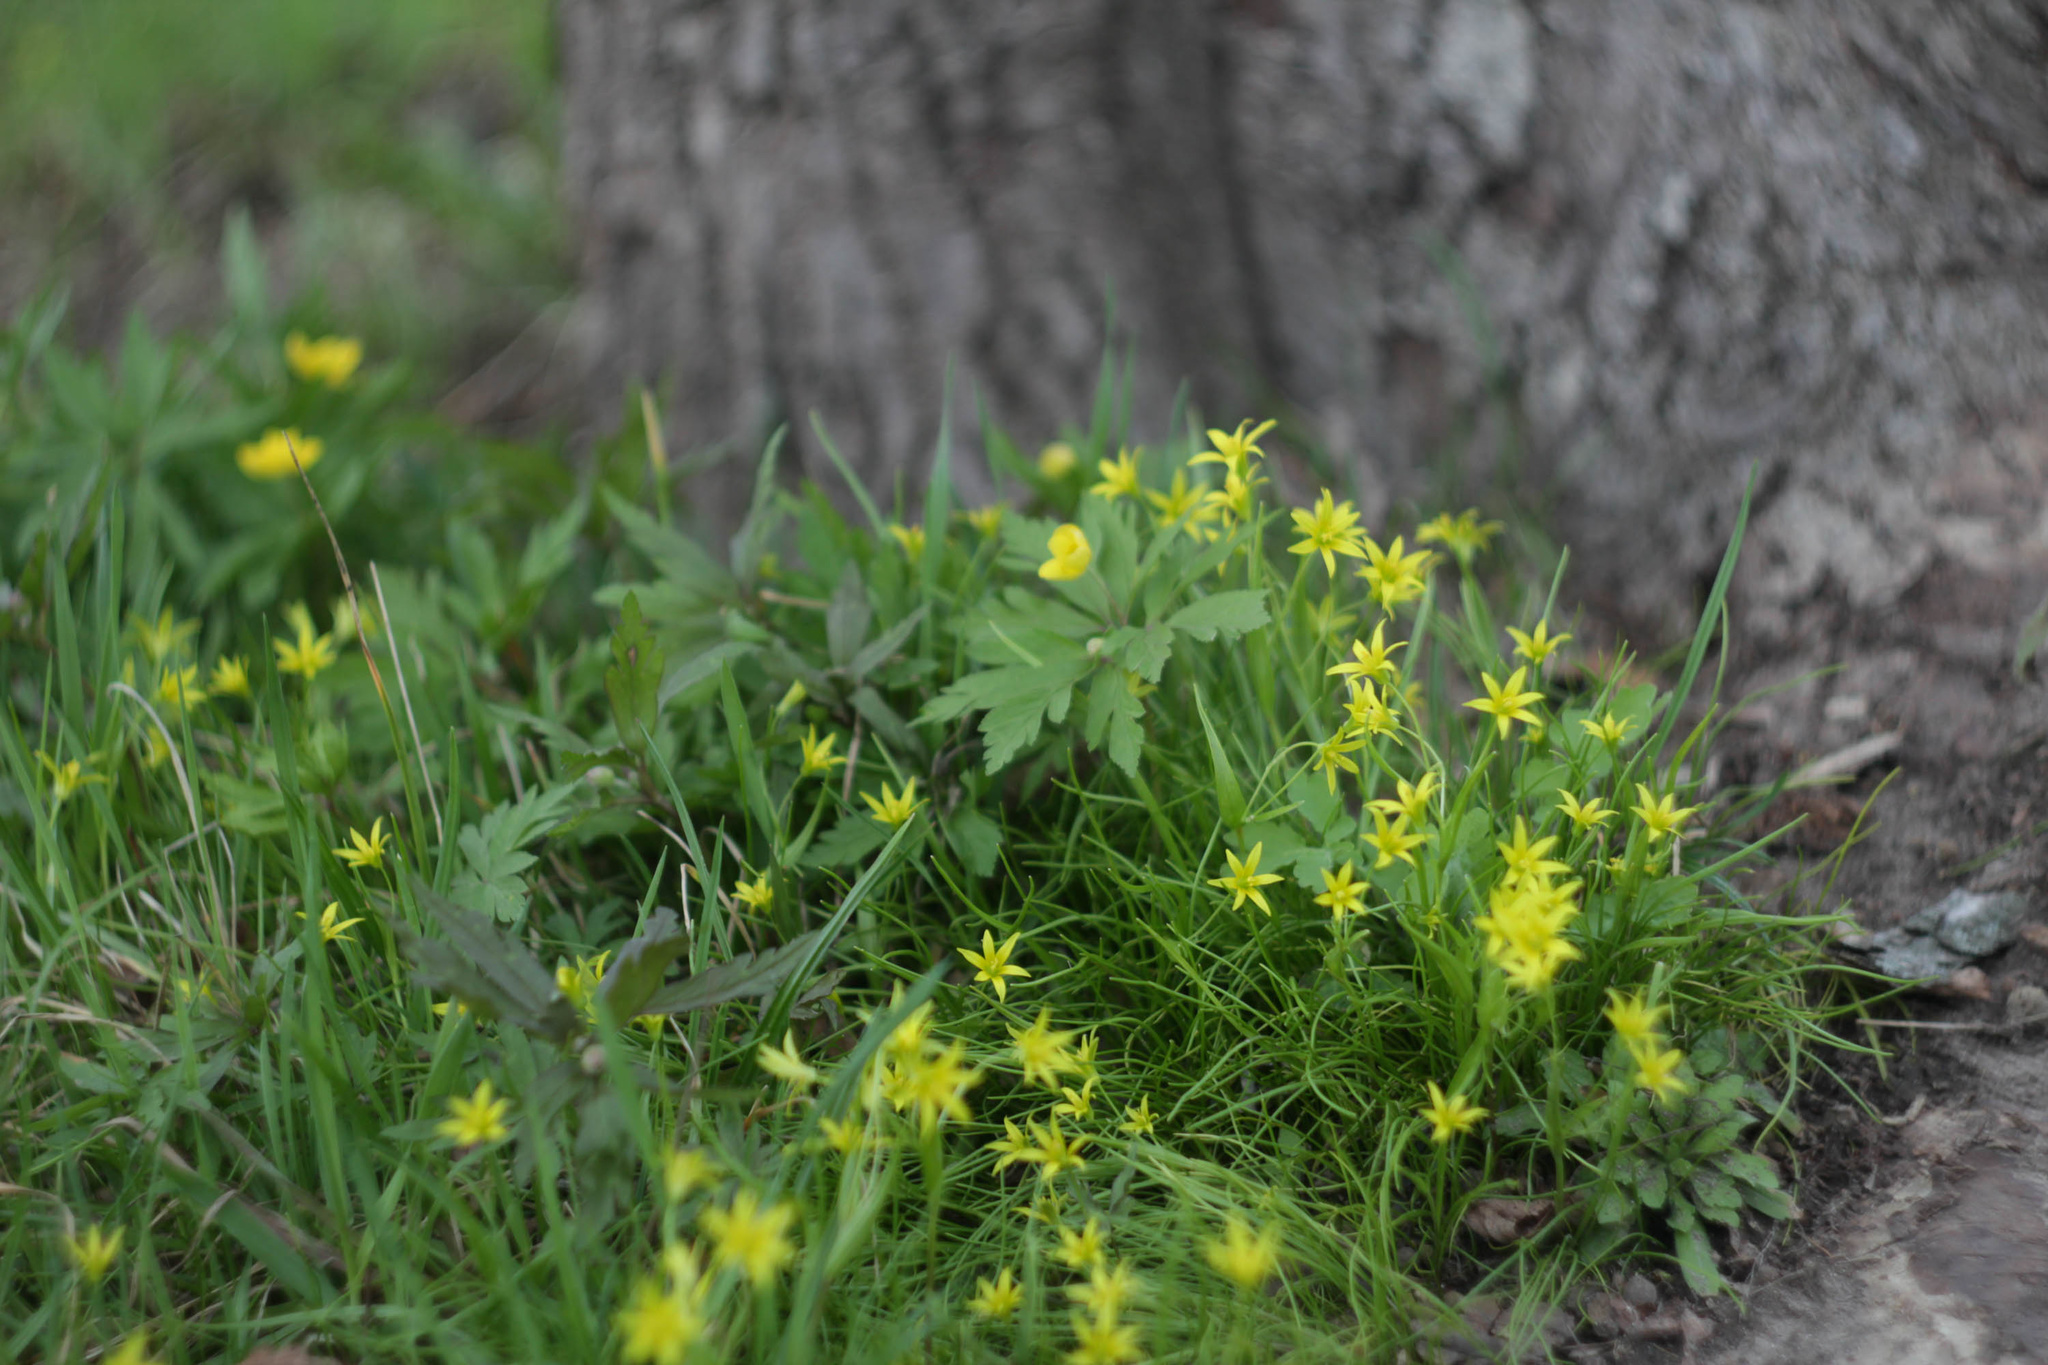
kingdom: Plantae
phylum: Tracheophyta
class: Liliopsida
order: Liliales
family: Liliaceae
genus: Gagea
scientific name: Gagea minima
